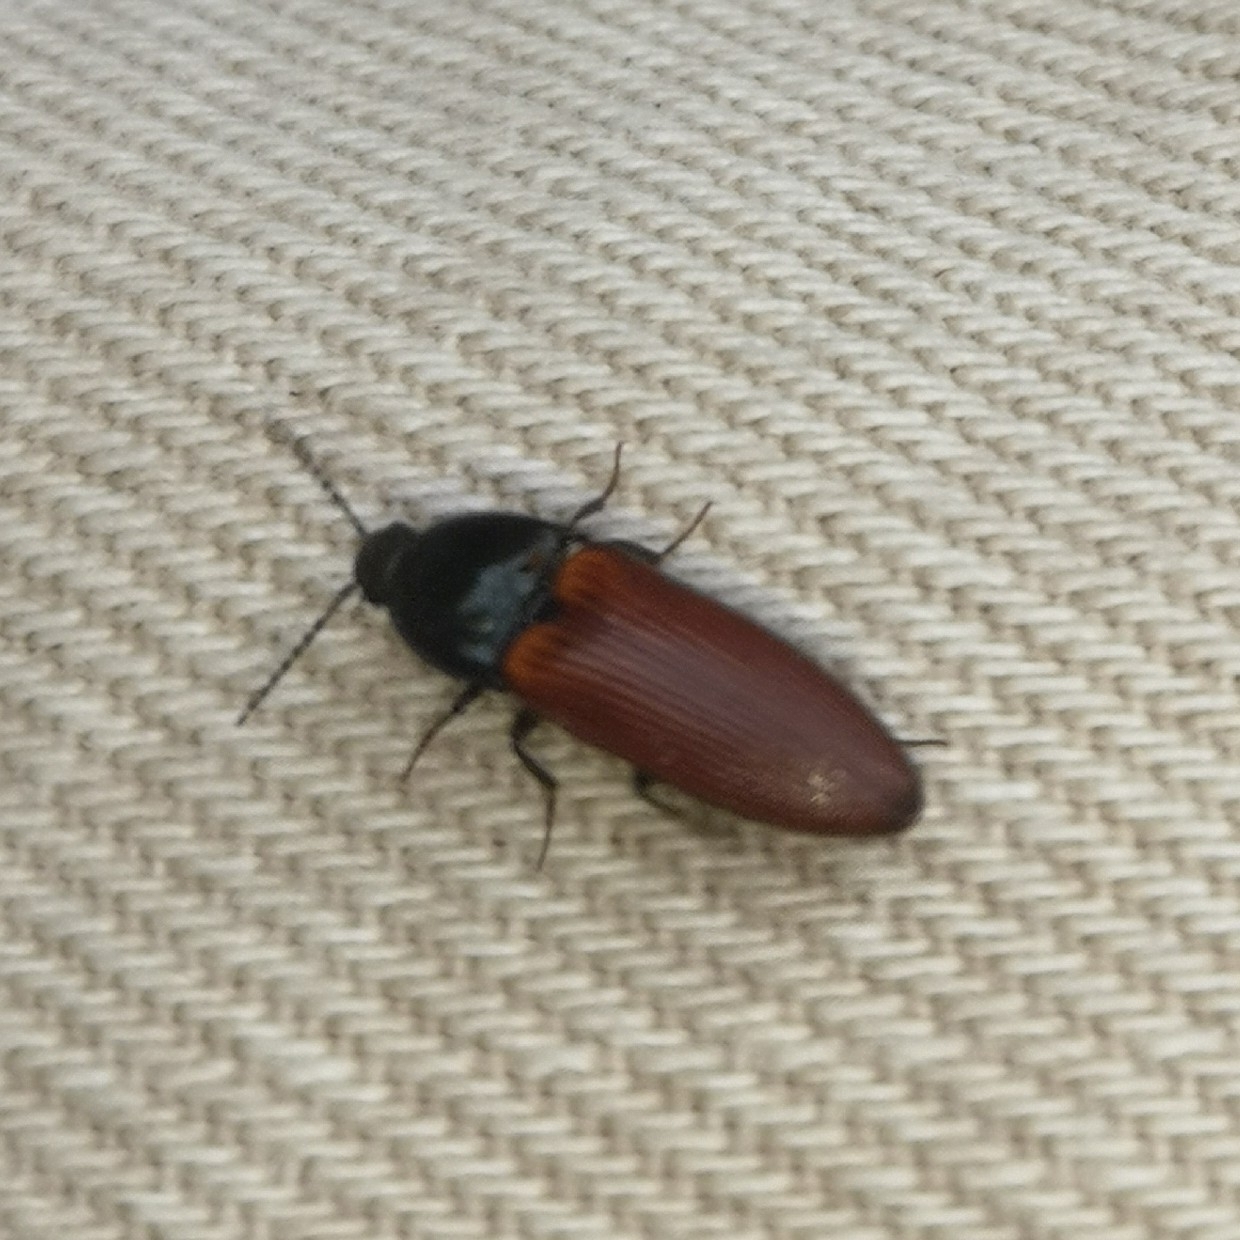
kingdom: Animalia
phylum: Arthropoda
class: Insecta
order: Coleoptera
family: Elateridae
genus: Ampedus
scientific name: Ampedus sanguineus
